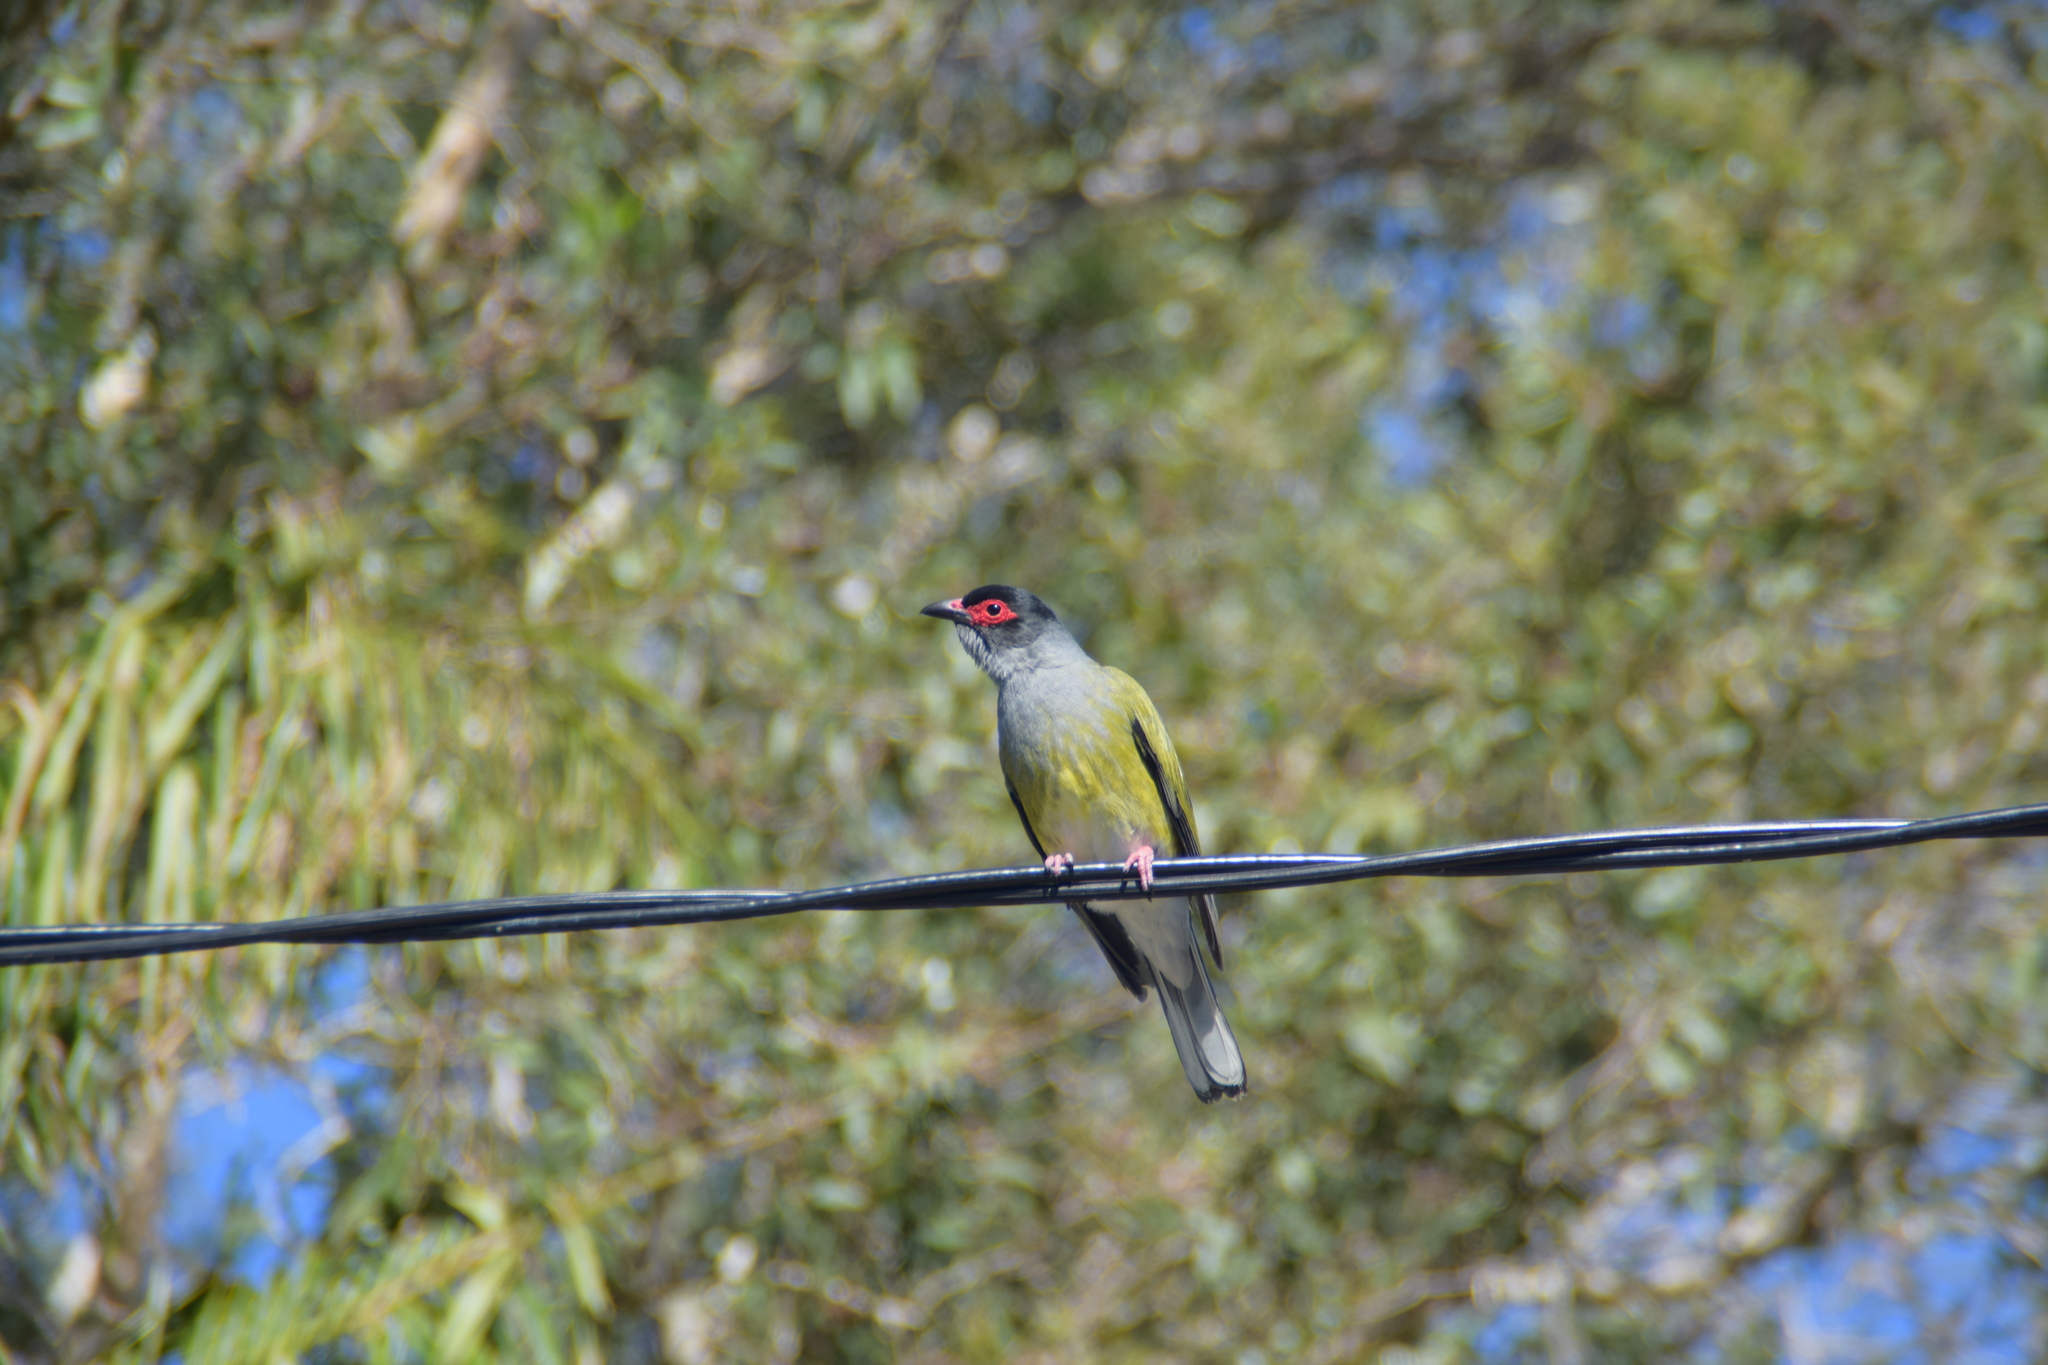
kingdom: Animalia
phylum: Chordata
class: Aves
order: Passeriformes
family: Oriolidae
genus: Sphecotheres
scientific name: Sphecotheres vieilloti
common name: Australasian figbird
